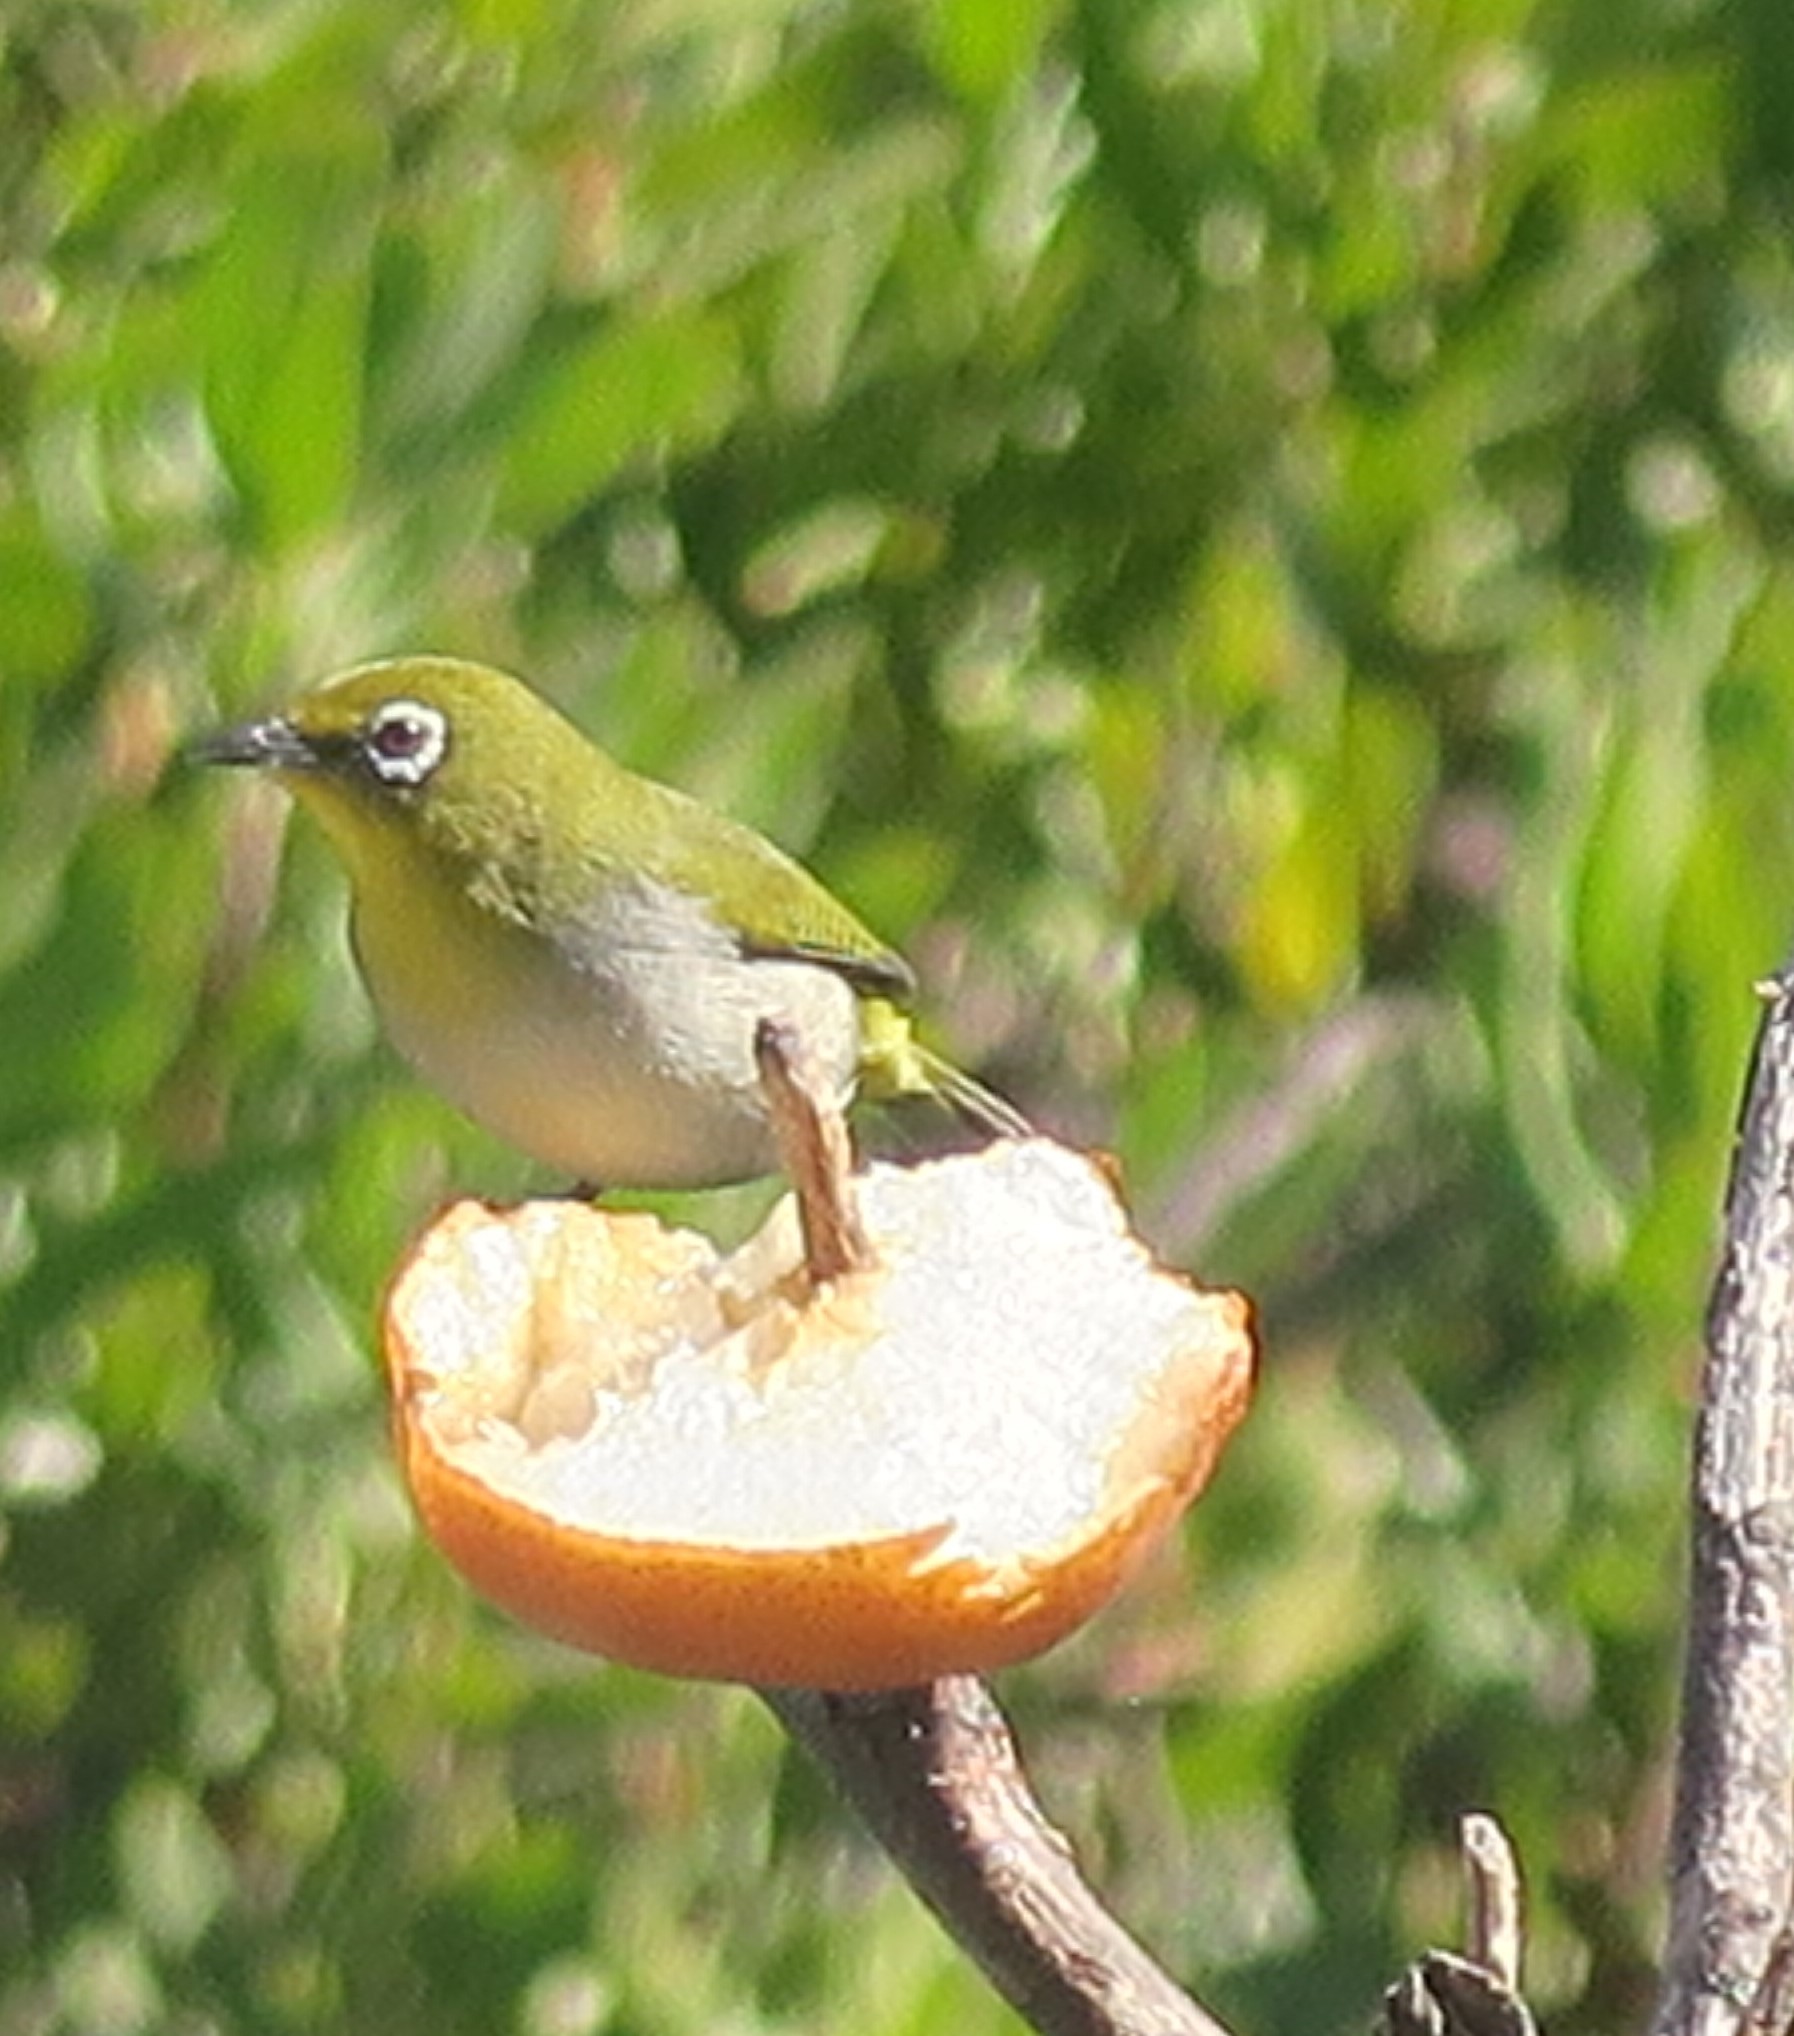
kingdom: Animalia
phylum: Chordata
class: Aves
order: Passeriformes
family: Zosteropidae
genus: Zosterops
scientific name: Zosterops virens
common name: Cape white-eye
